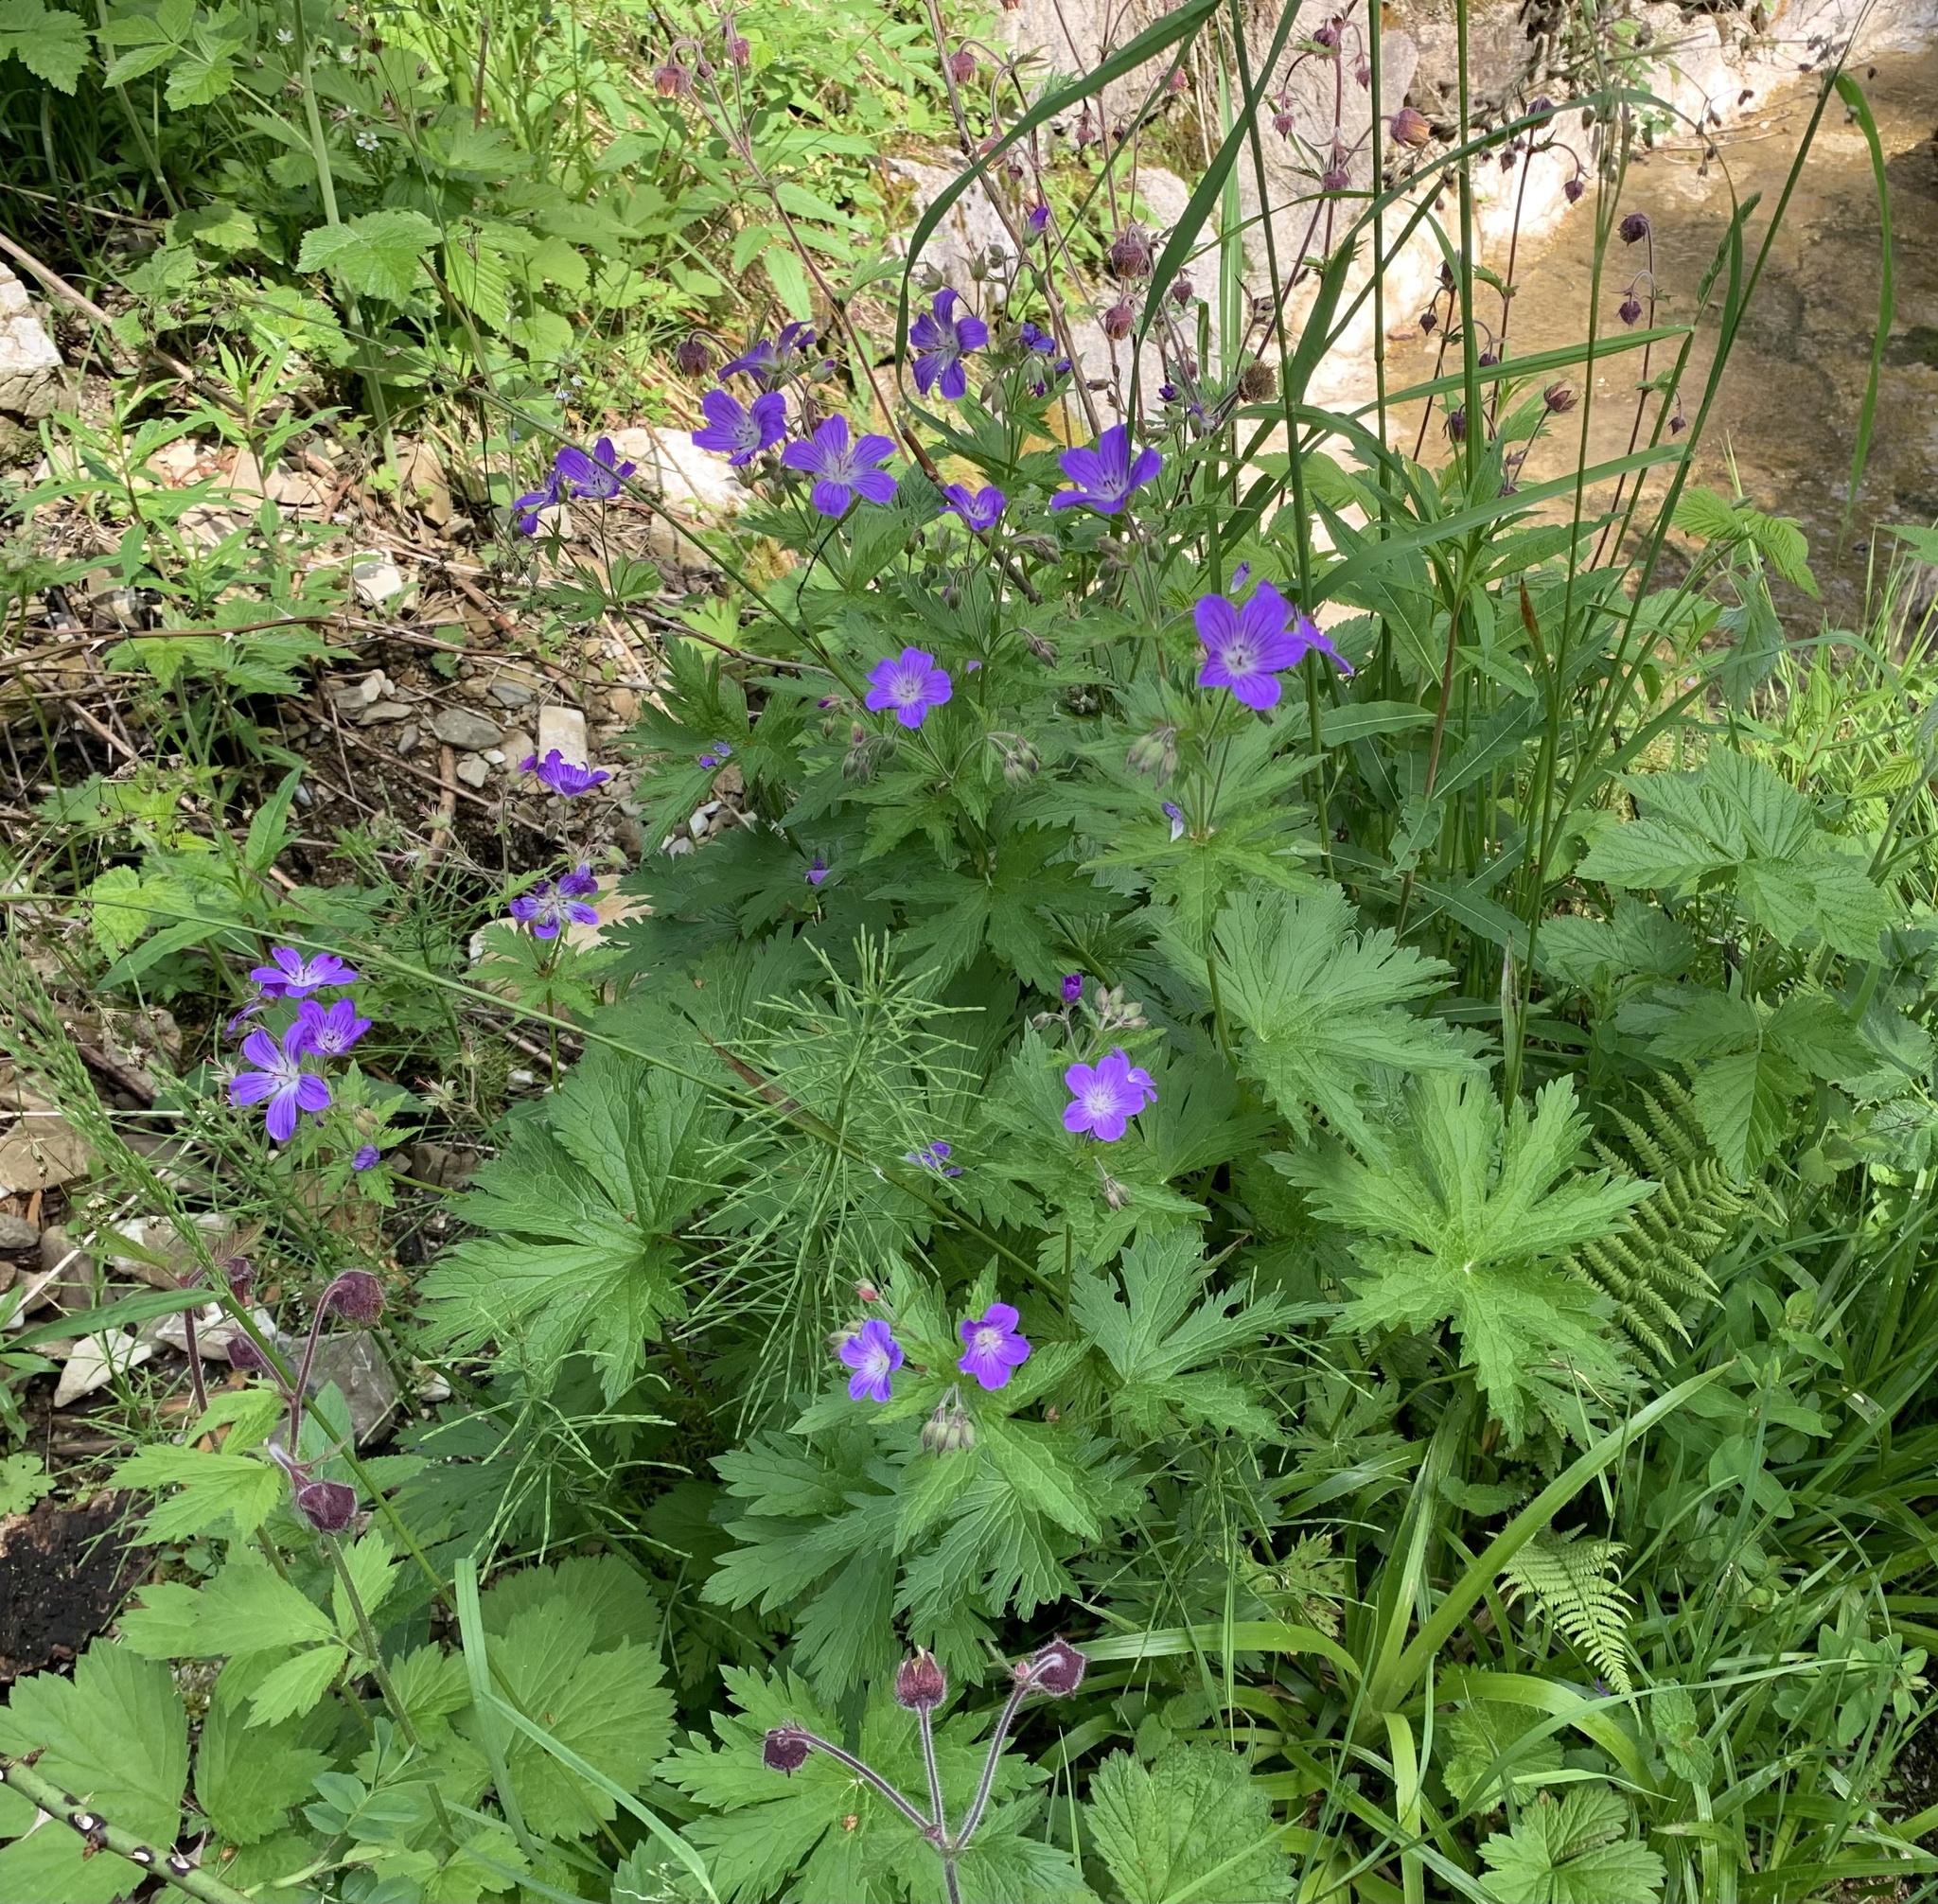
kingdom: Plantae
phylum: Tracheophyta
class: Magnoliopsida
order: Geraniales
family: Geraniaceae
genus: Geranium
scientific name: Geranium sylvaticum
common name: Wood crane's-bill
